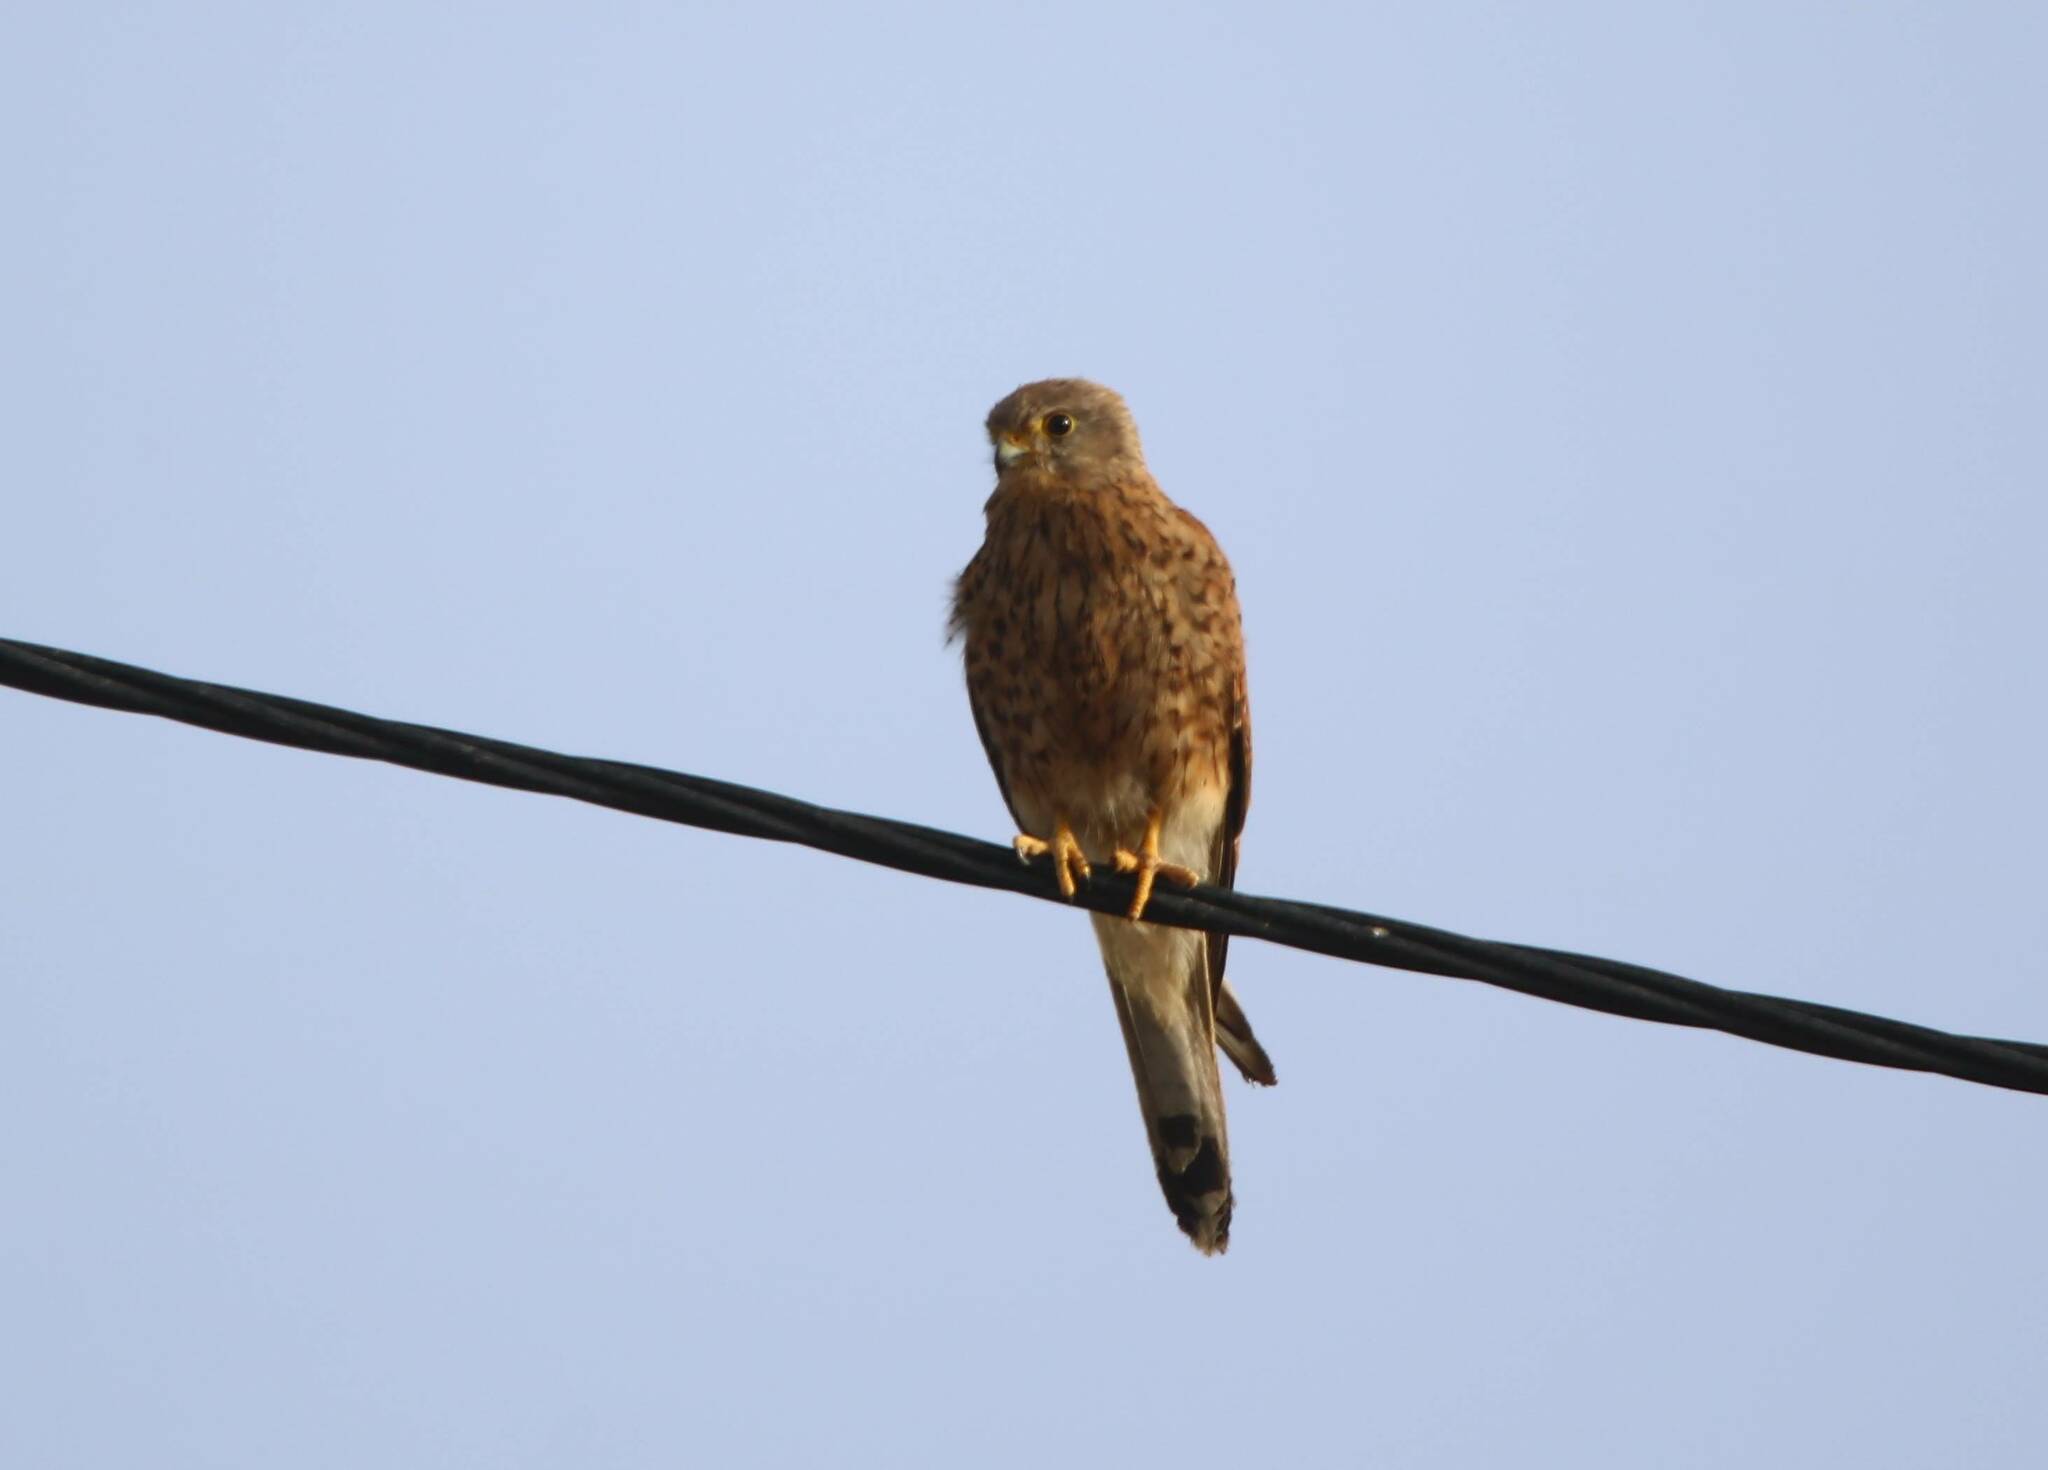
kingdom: Animalia
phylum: Chordata
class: Aves
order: Falconiformes
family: Falconidae
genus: Falco
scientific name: Falco tinnunculus
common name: Common kestrel
